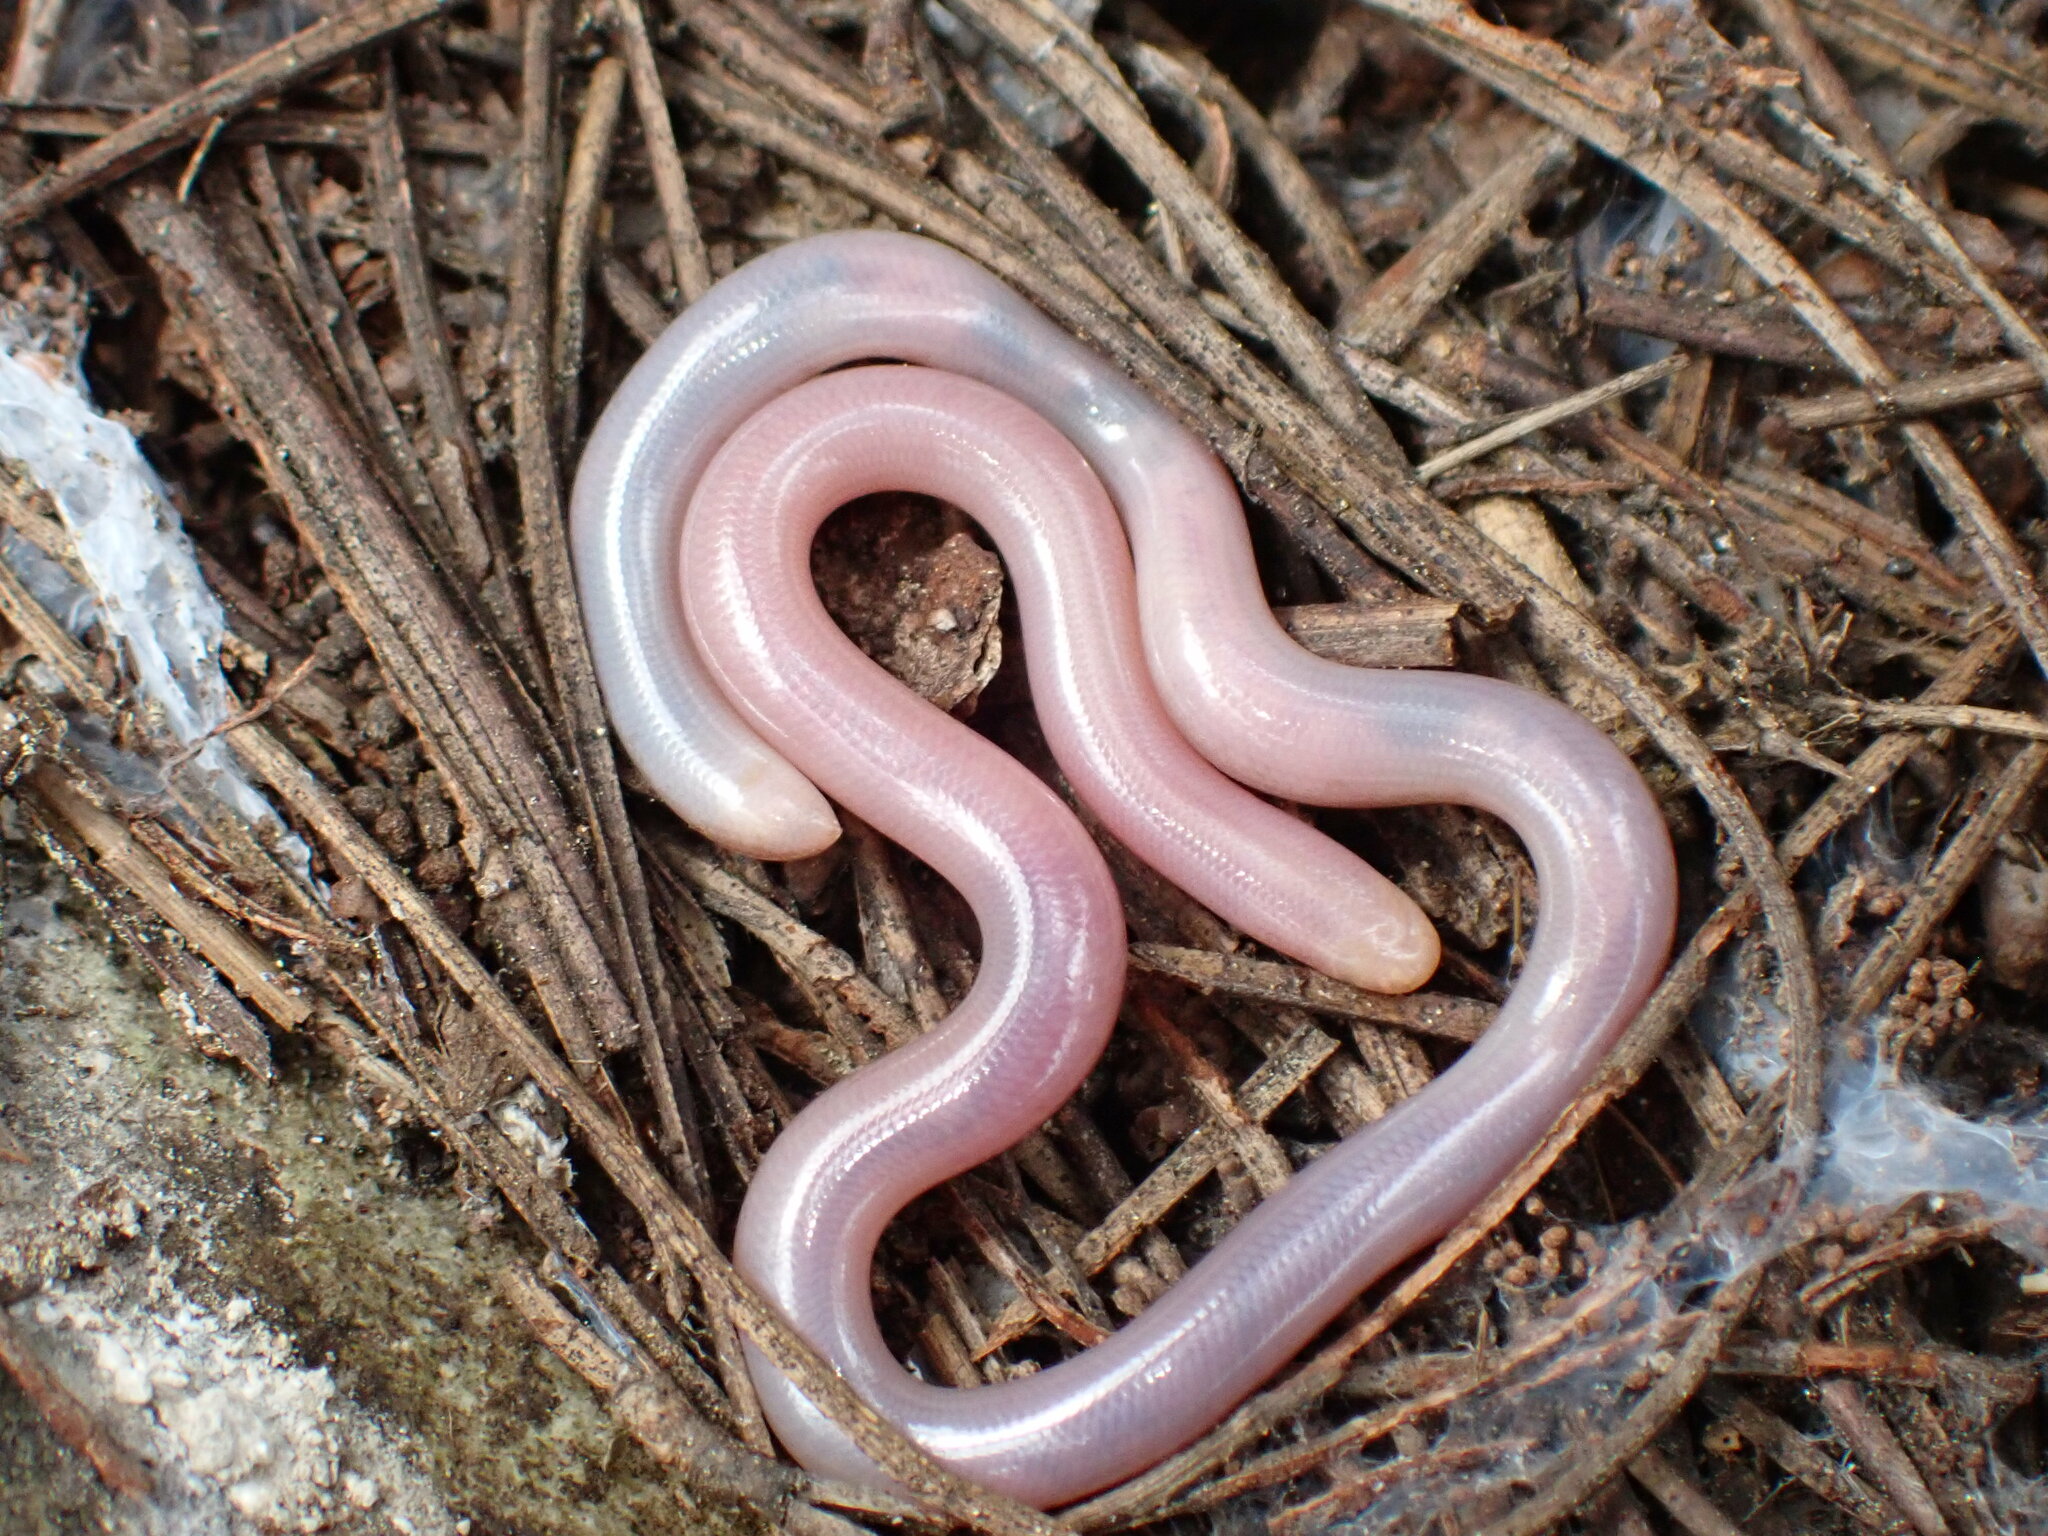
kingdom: Animalia
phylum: Chordata
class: Squamata
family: Typhlopidae
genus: Xerotyphlops
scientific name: Xerotyphlops vermicularis
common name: Eurasian blind snake
